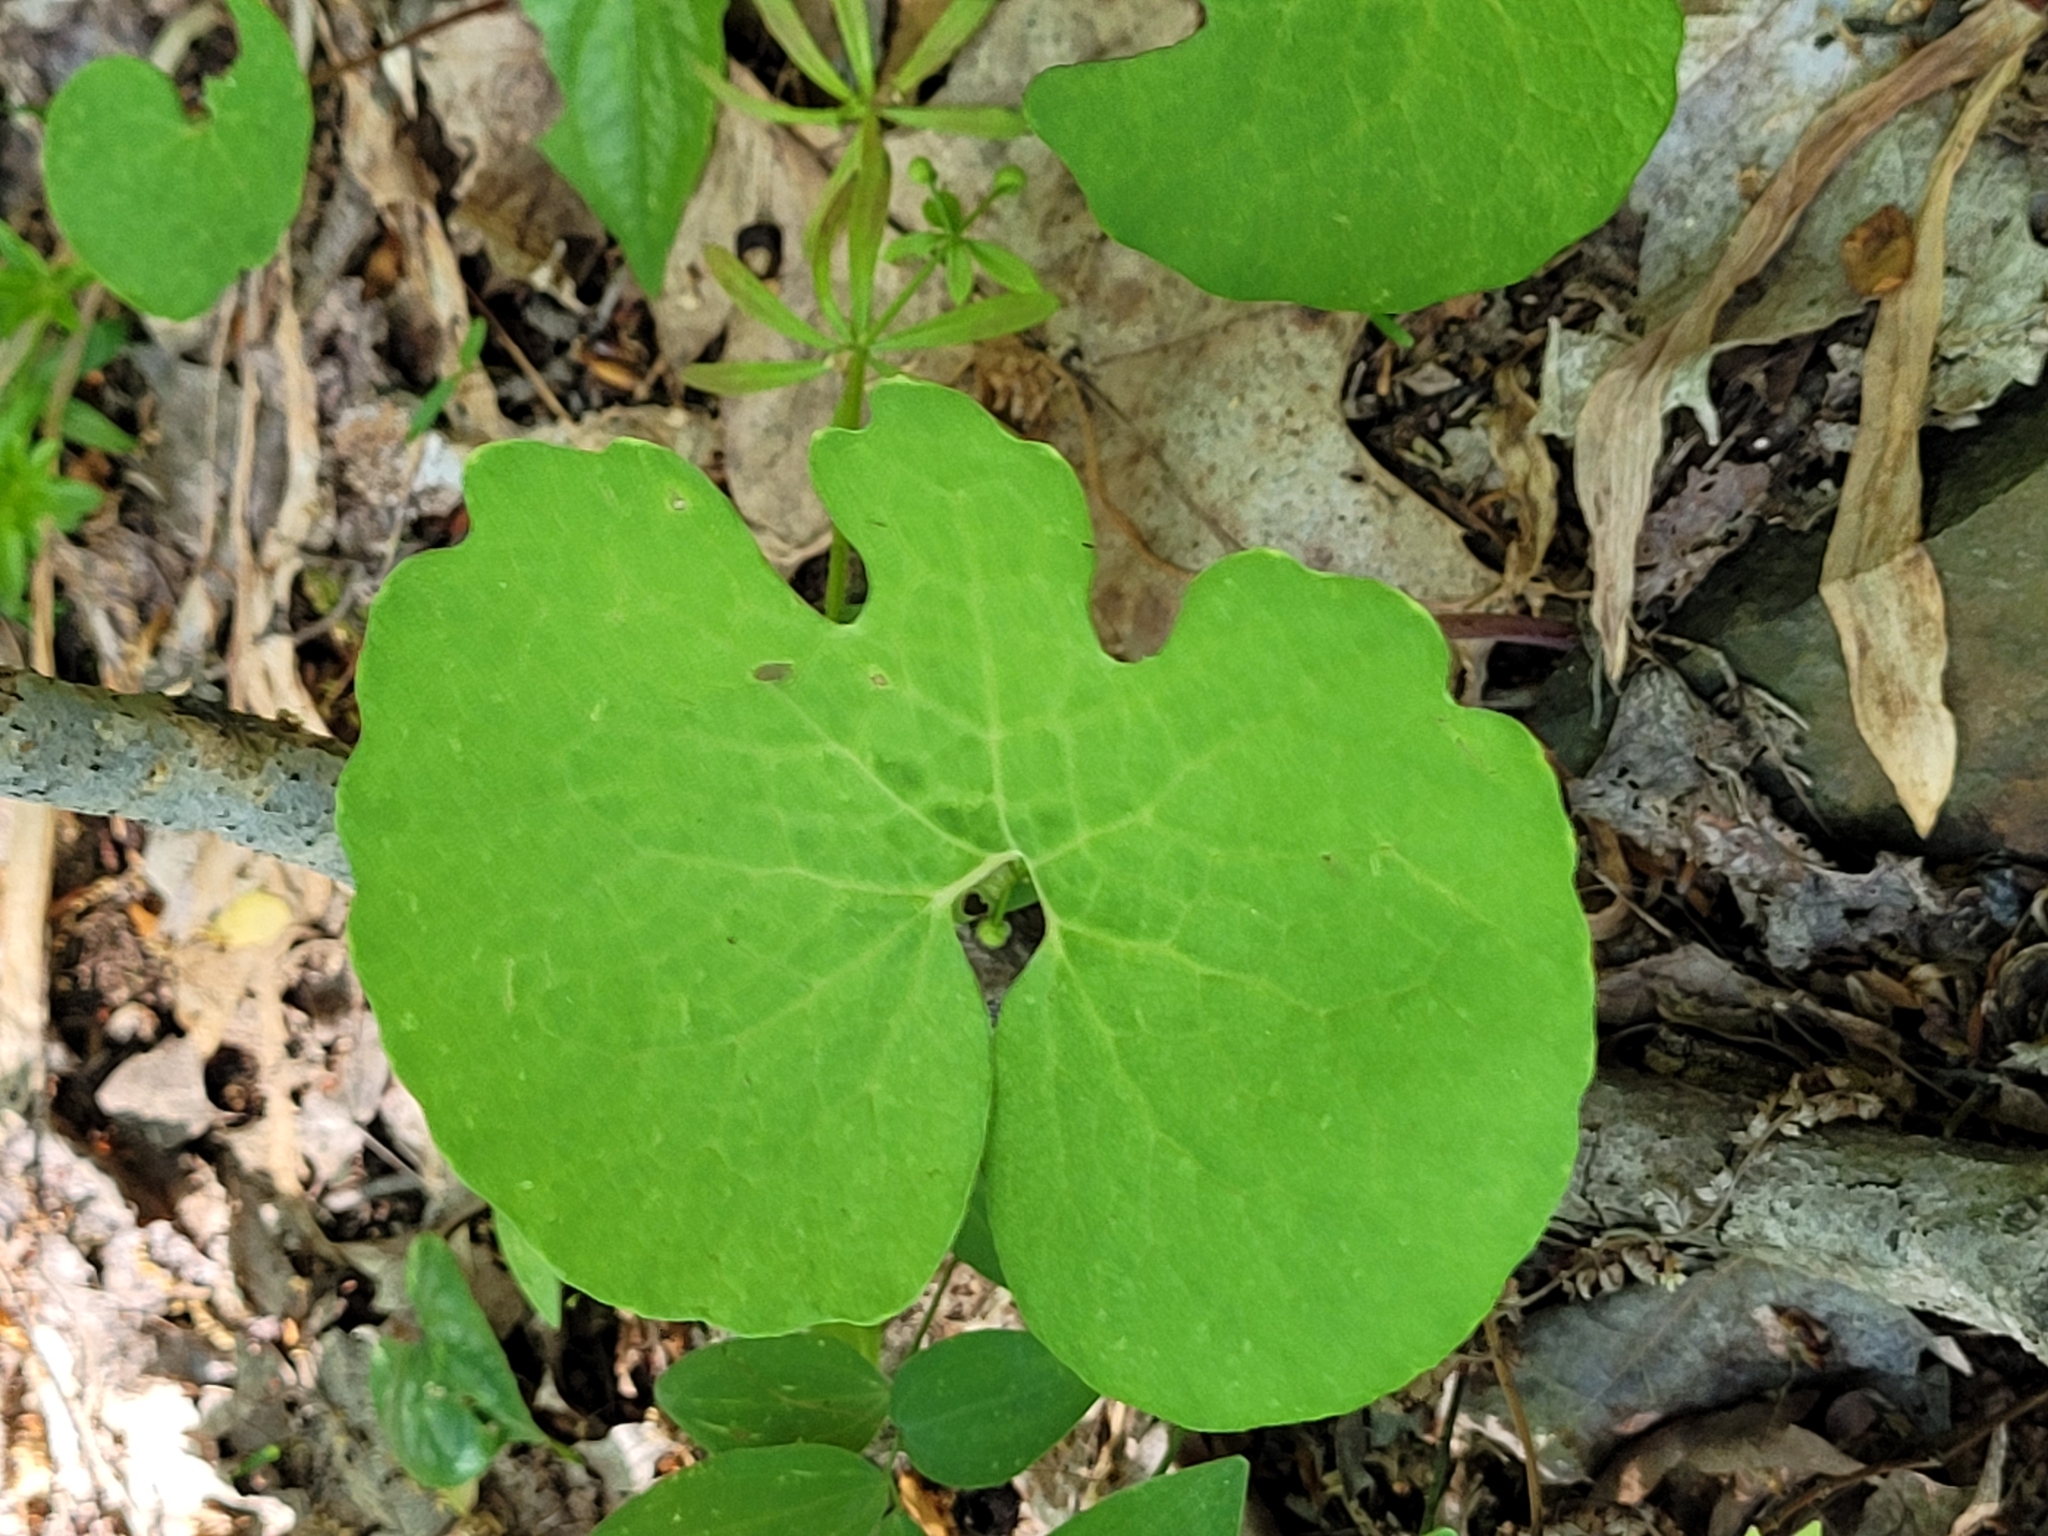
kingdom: Plantae
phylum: Tracheophyta
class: Magnoliopsida
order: Ranunculales
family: Papaveraceae
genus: Sanguinaria
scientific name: Sanguinaria canadensis
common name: Bloodroot
